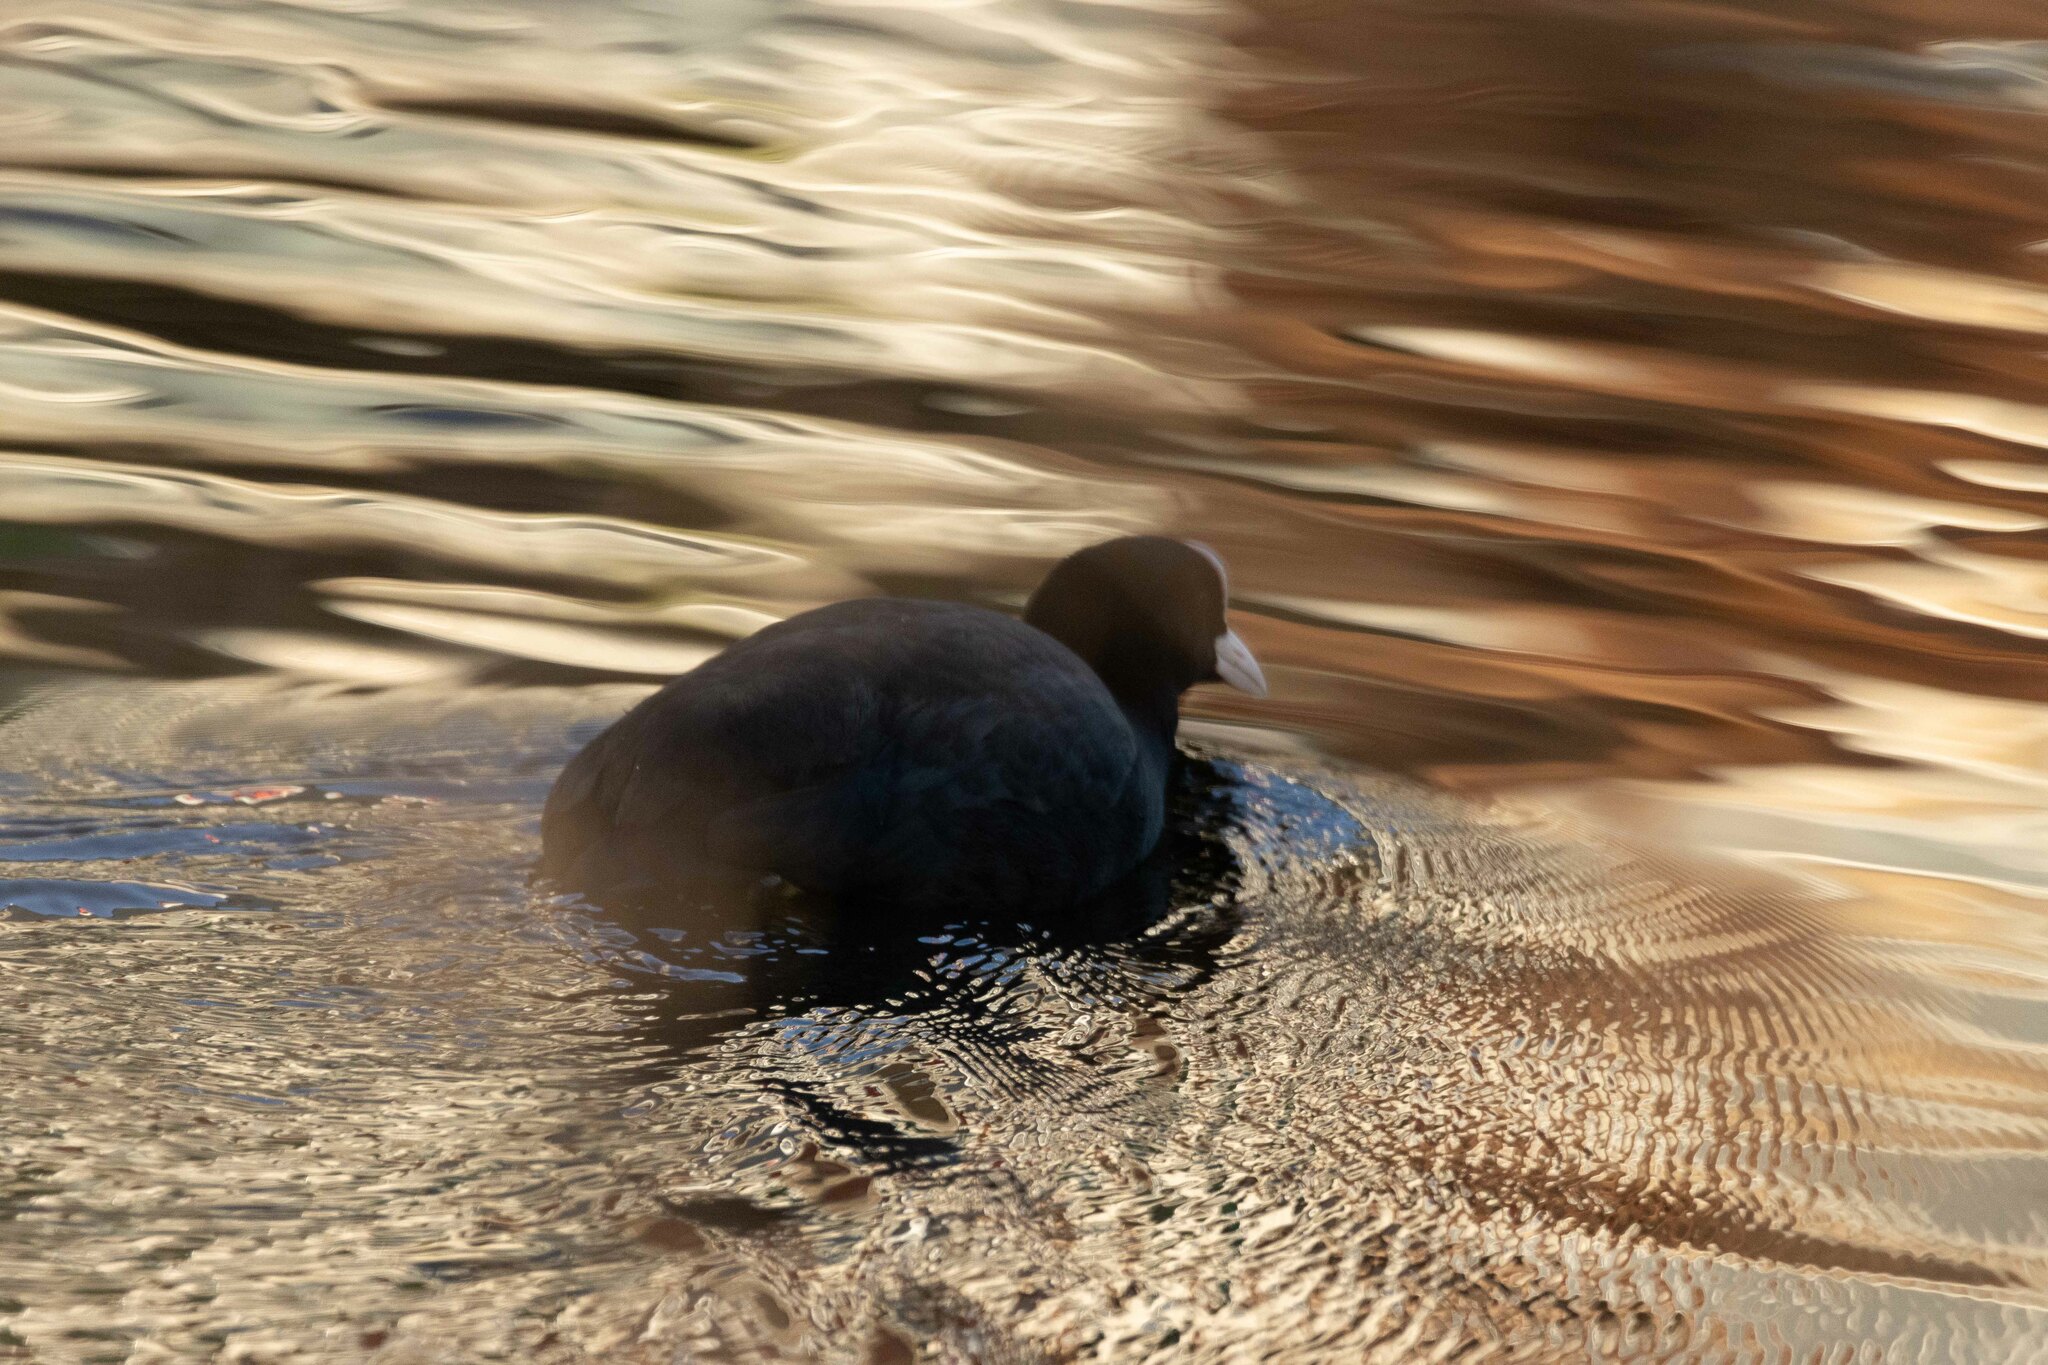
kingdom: Animalia
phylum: Chordata
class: Aves
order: Gruiformes
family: Rallidae
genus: Fulica
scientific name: Fulica atra
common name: Eurasian coot
